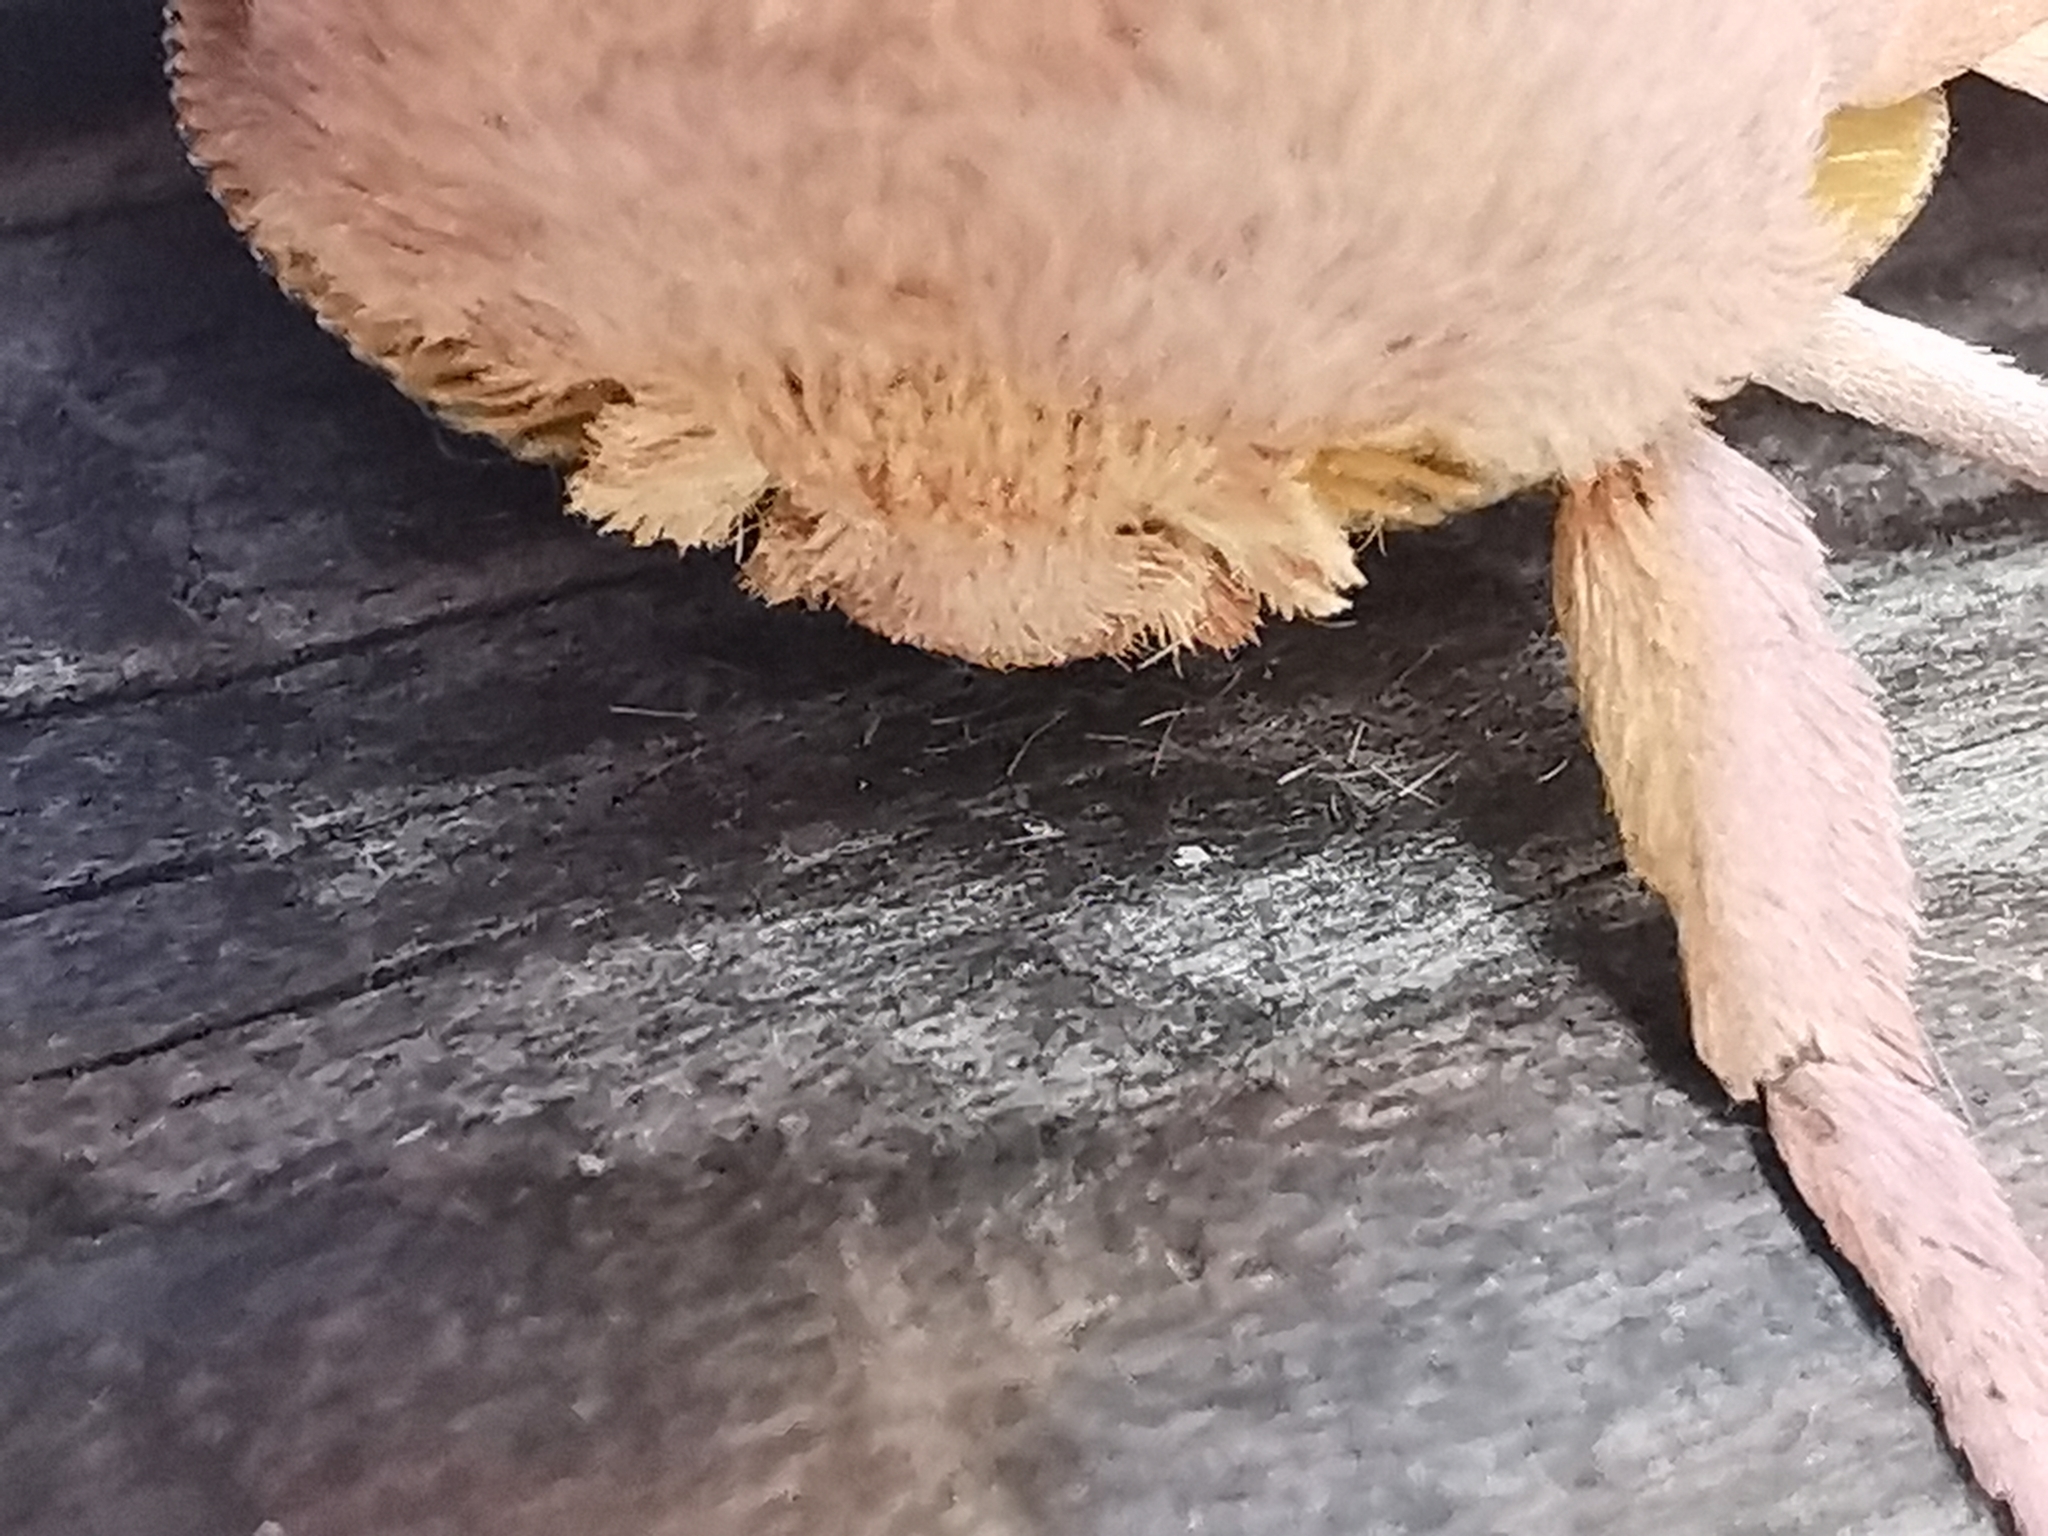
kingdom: Animalia
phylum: Arthropoda
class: Insecta
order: Lepidoptera
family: Saturniidae
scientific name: Saturniidae
